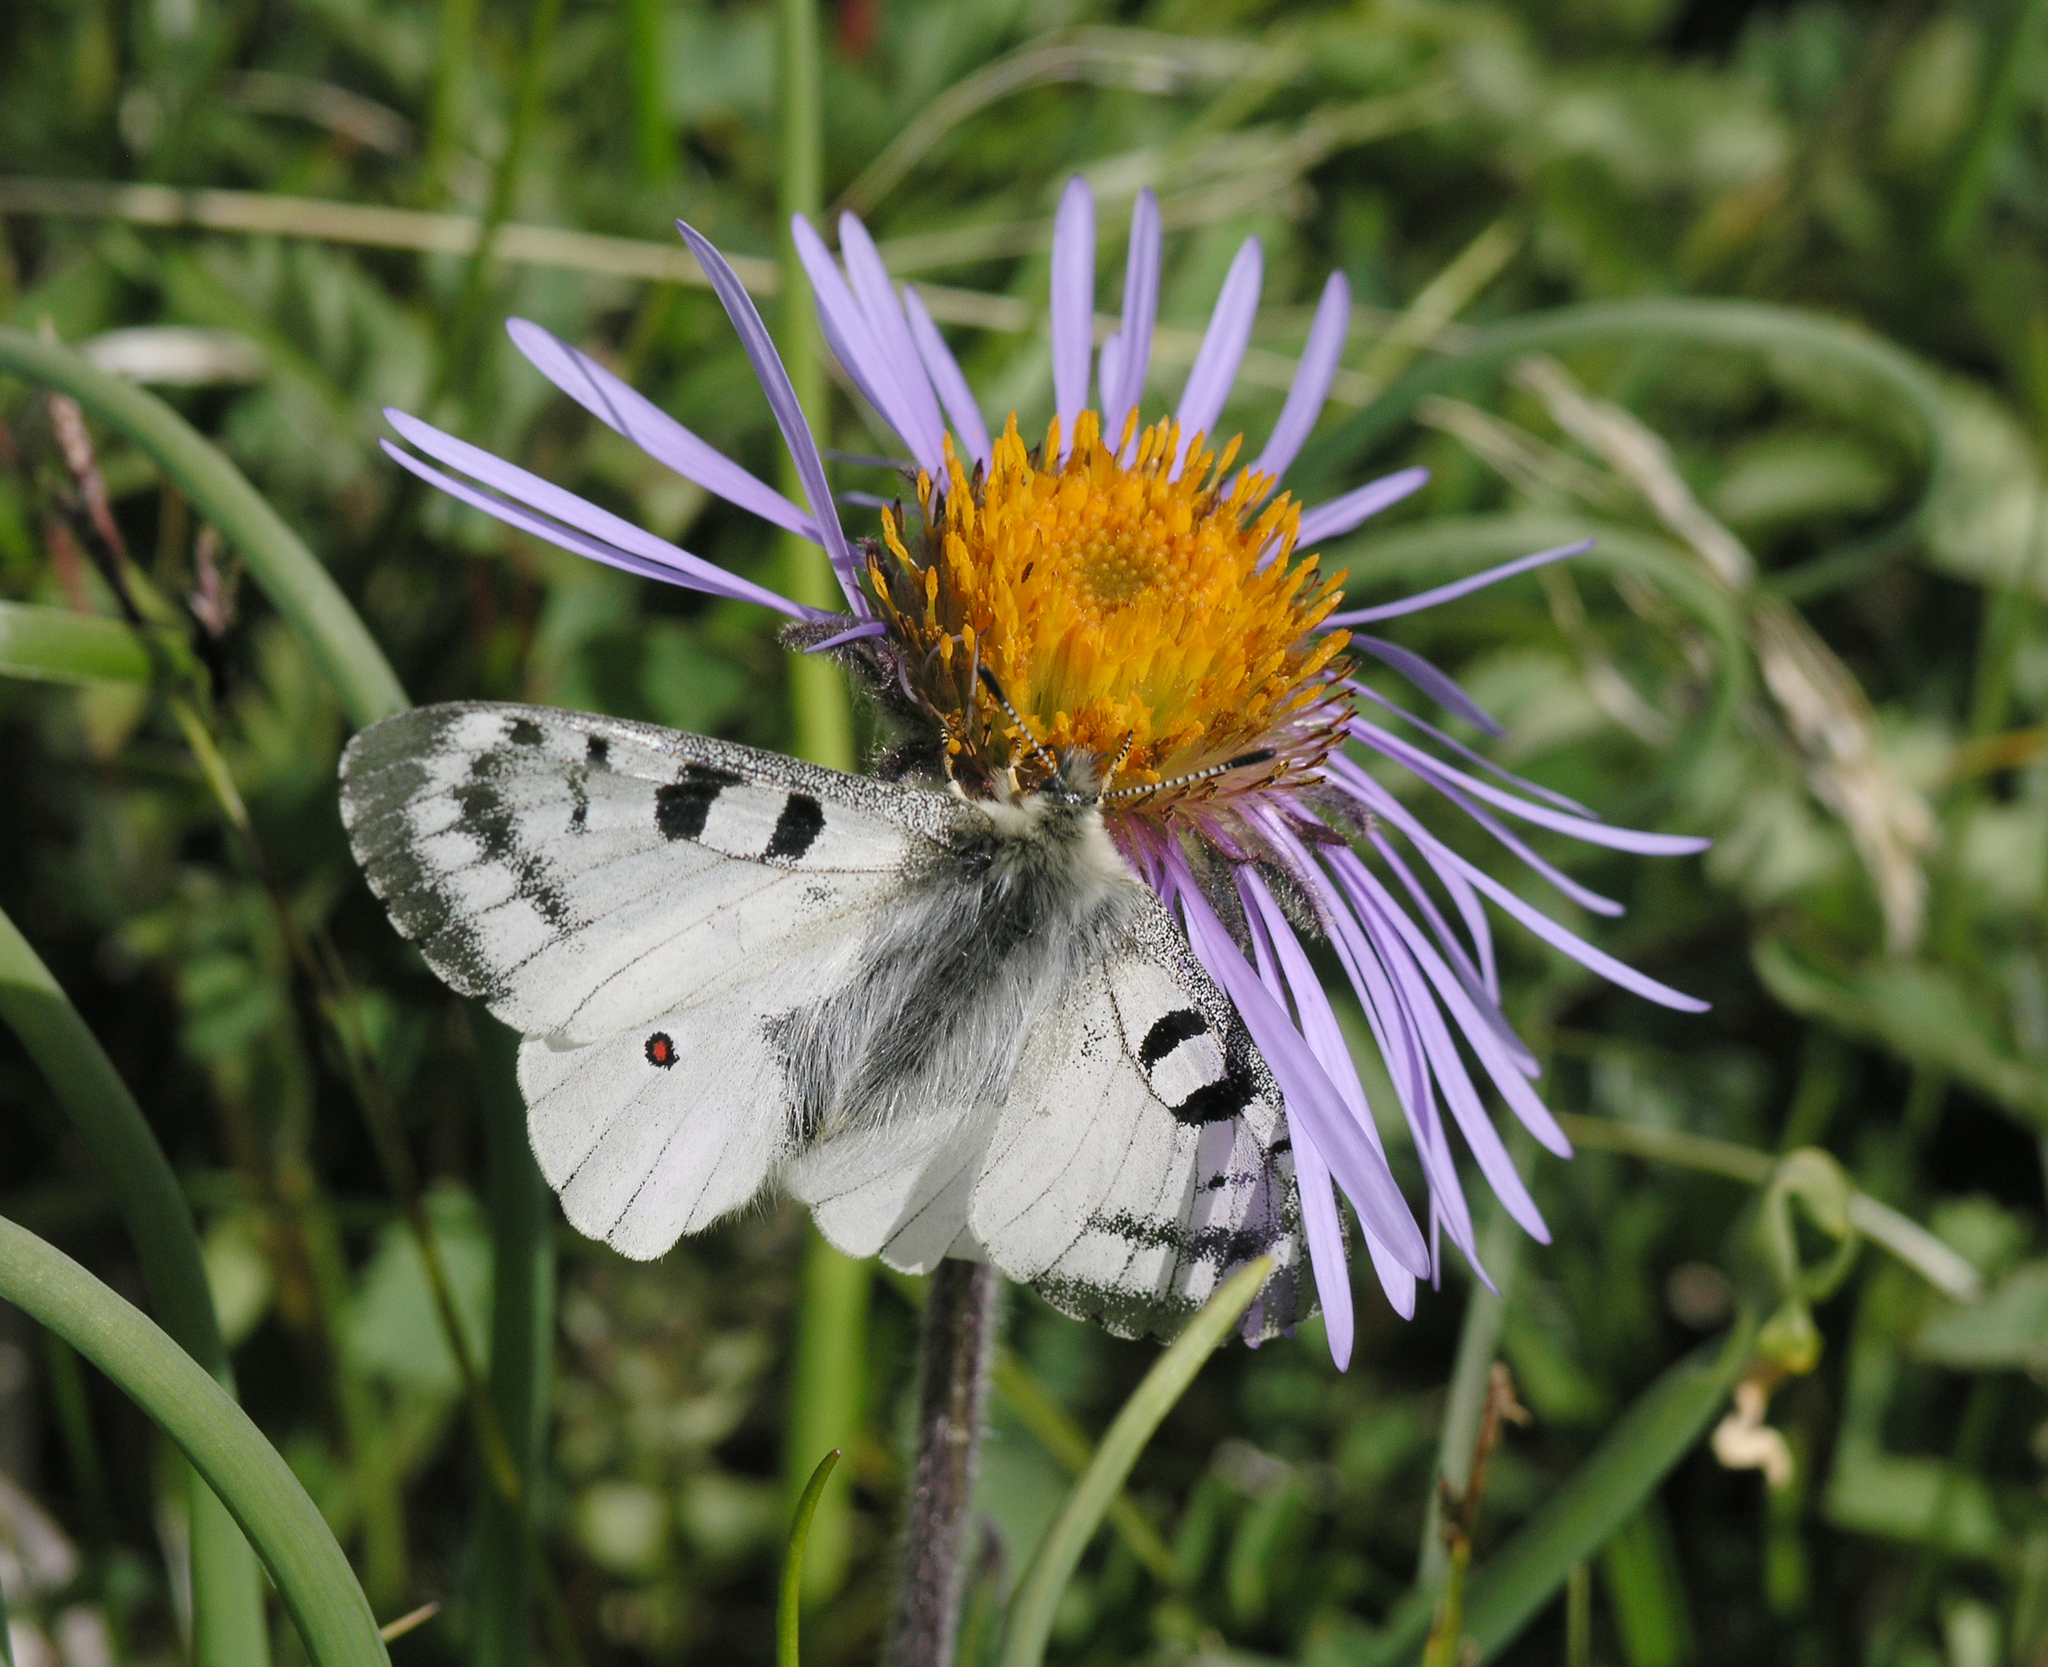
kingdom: Plantae
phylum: Tracheophyta
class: Magnoliopsida
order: Asterales
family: Asteraceae
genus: Tibetiodes
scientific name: Tibetiodes flaccida
